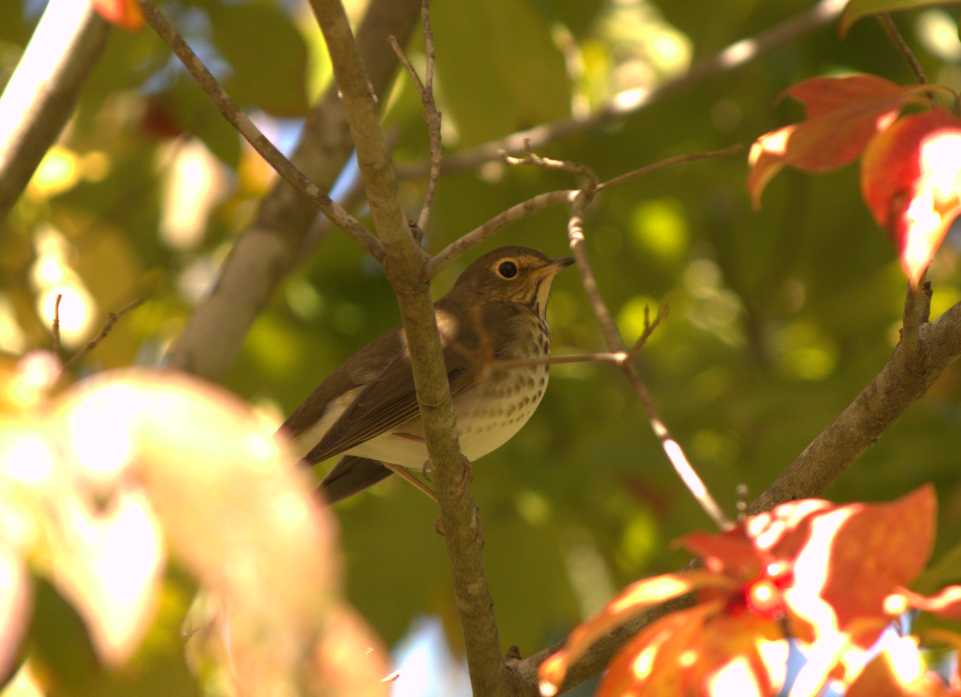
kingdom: Animalia
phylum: Chordata
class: Aves
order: Passeriformes
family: Turdidae
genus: Catharus
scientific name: Catharus ustulatus
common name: Swainson's thrush
